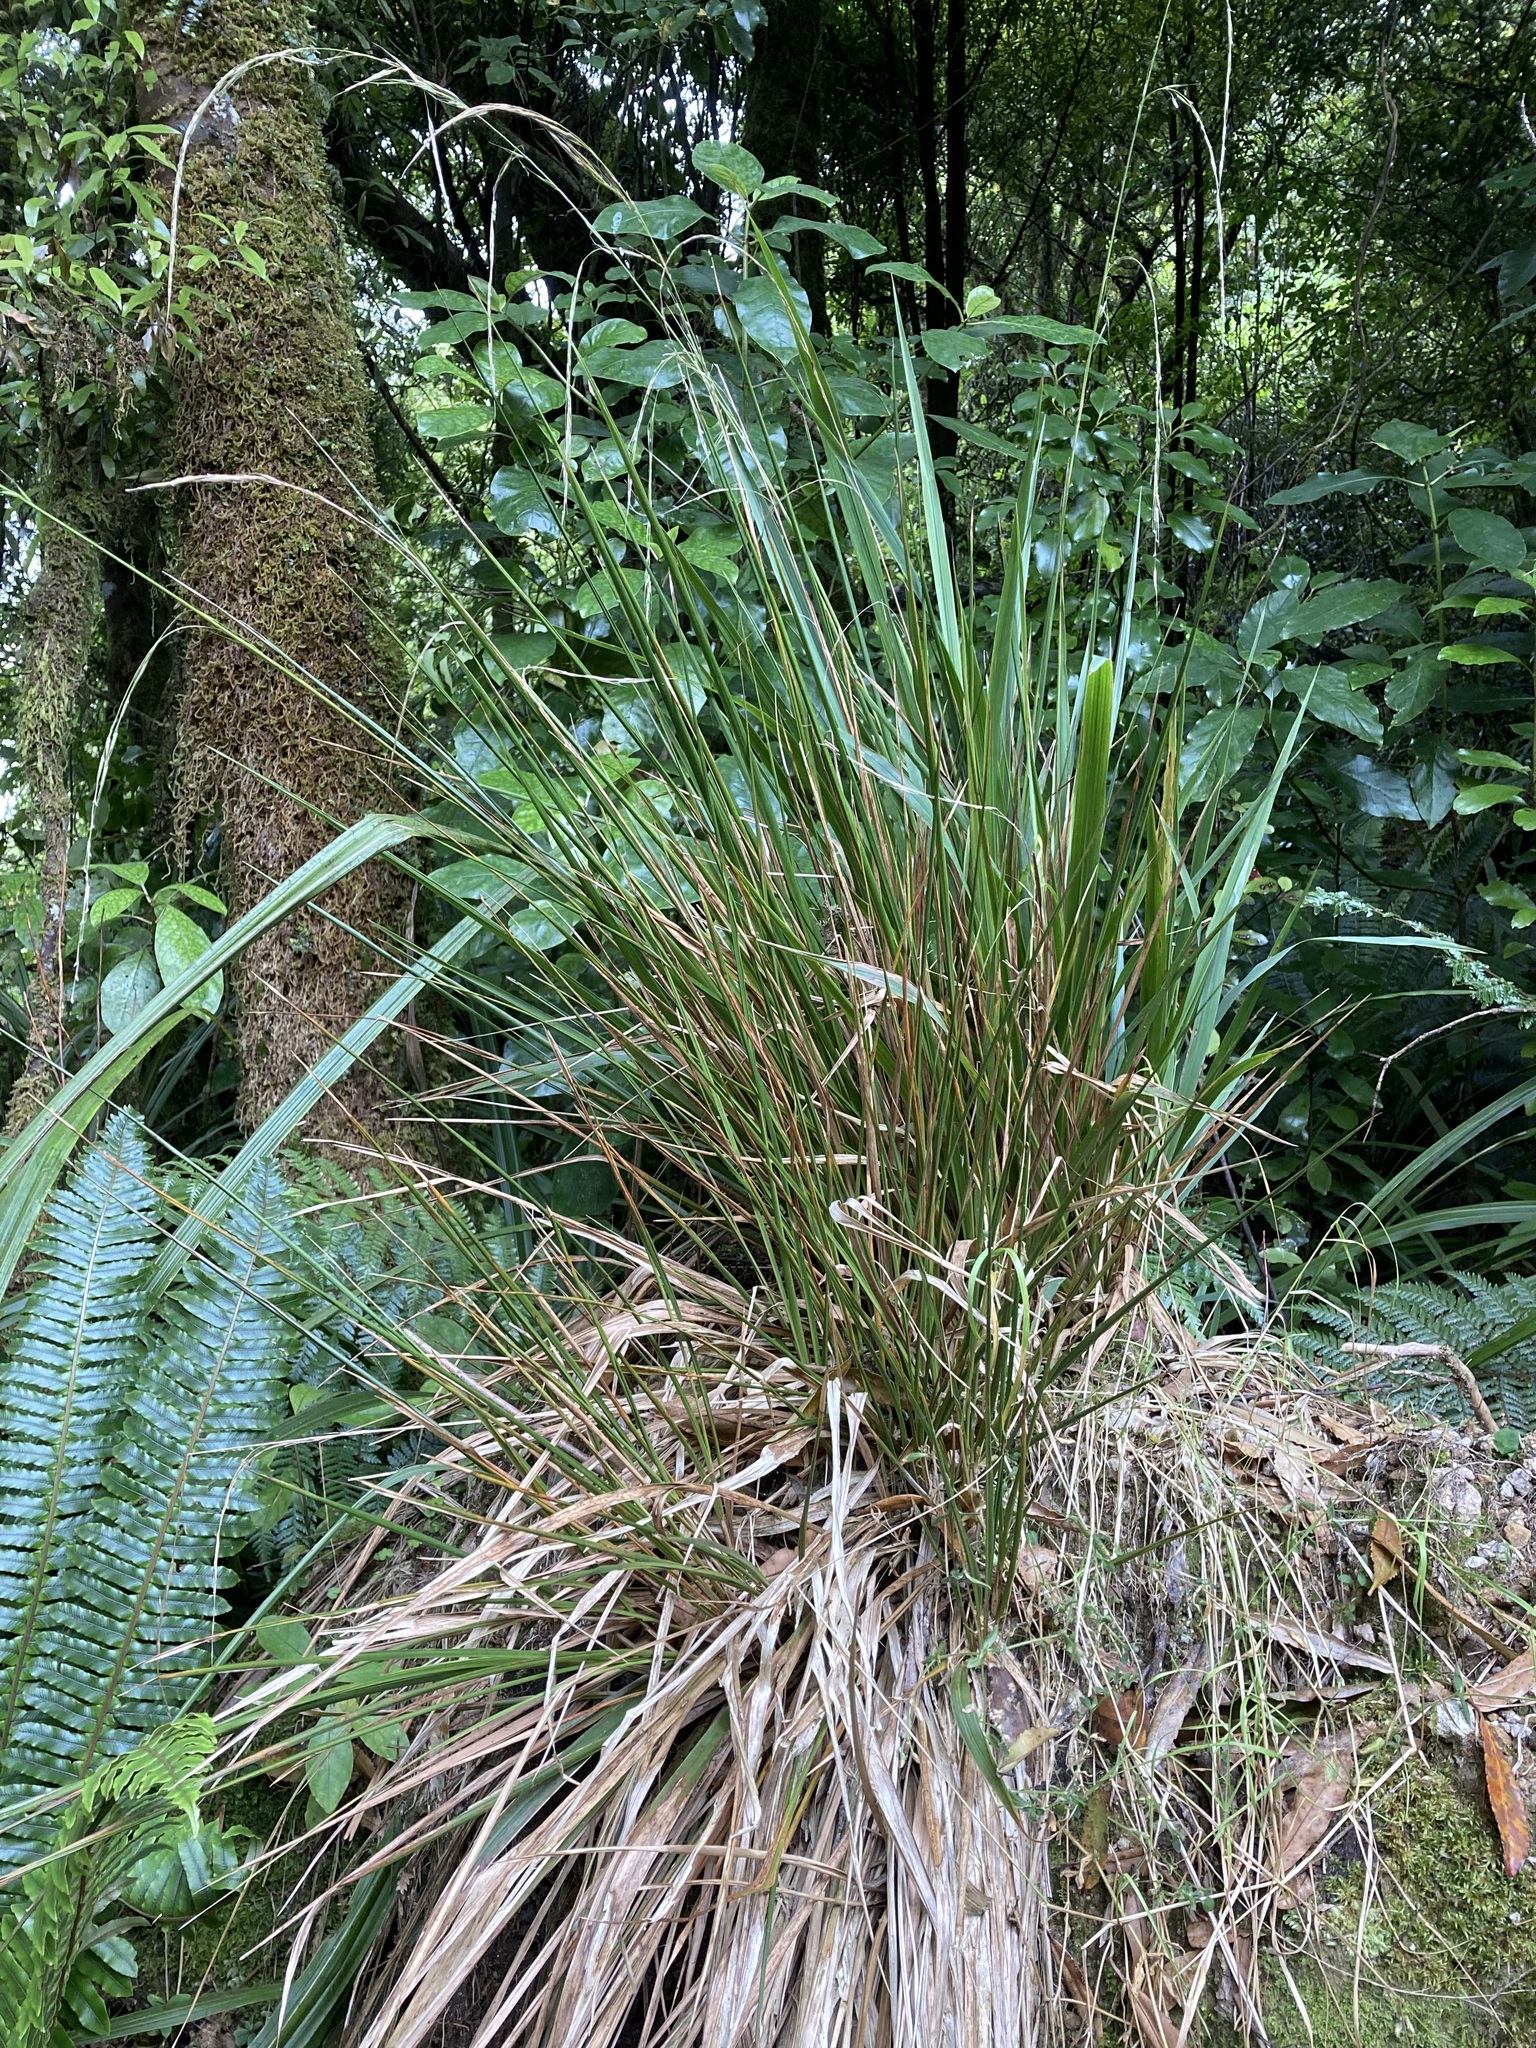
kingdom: Plantae
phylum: Tracheophyta
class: Liliopsida
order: Poales
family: Poaceae
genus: Ehrharta
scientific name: Ehrharta diplax
